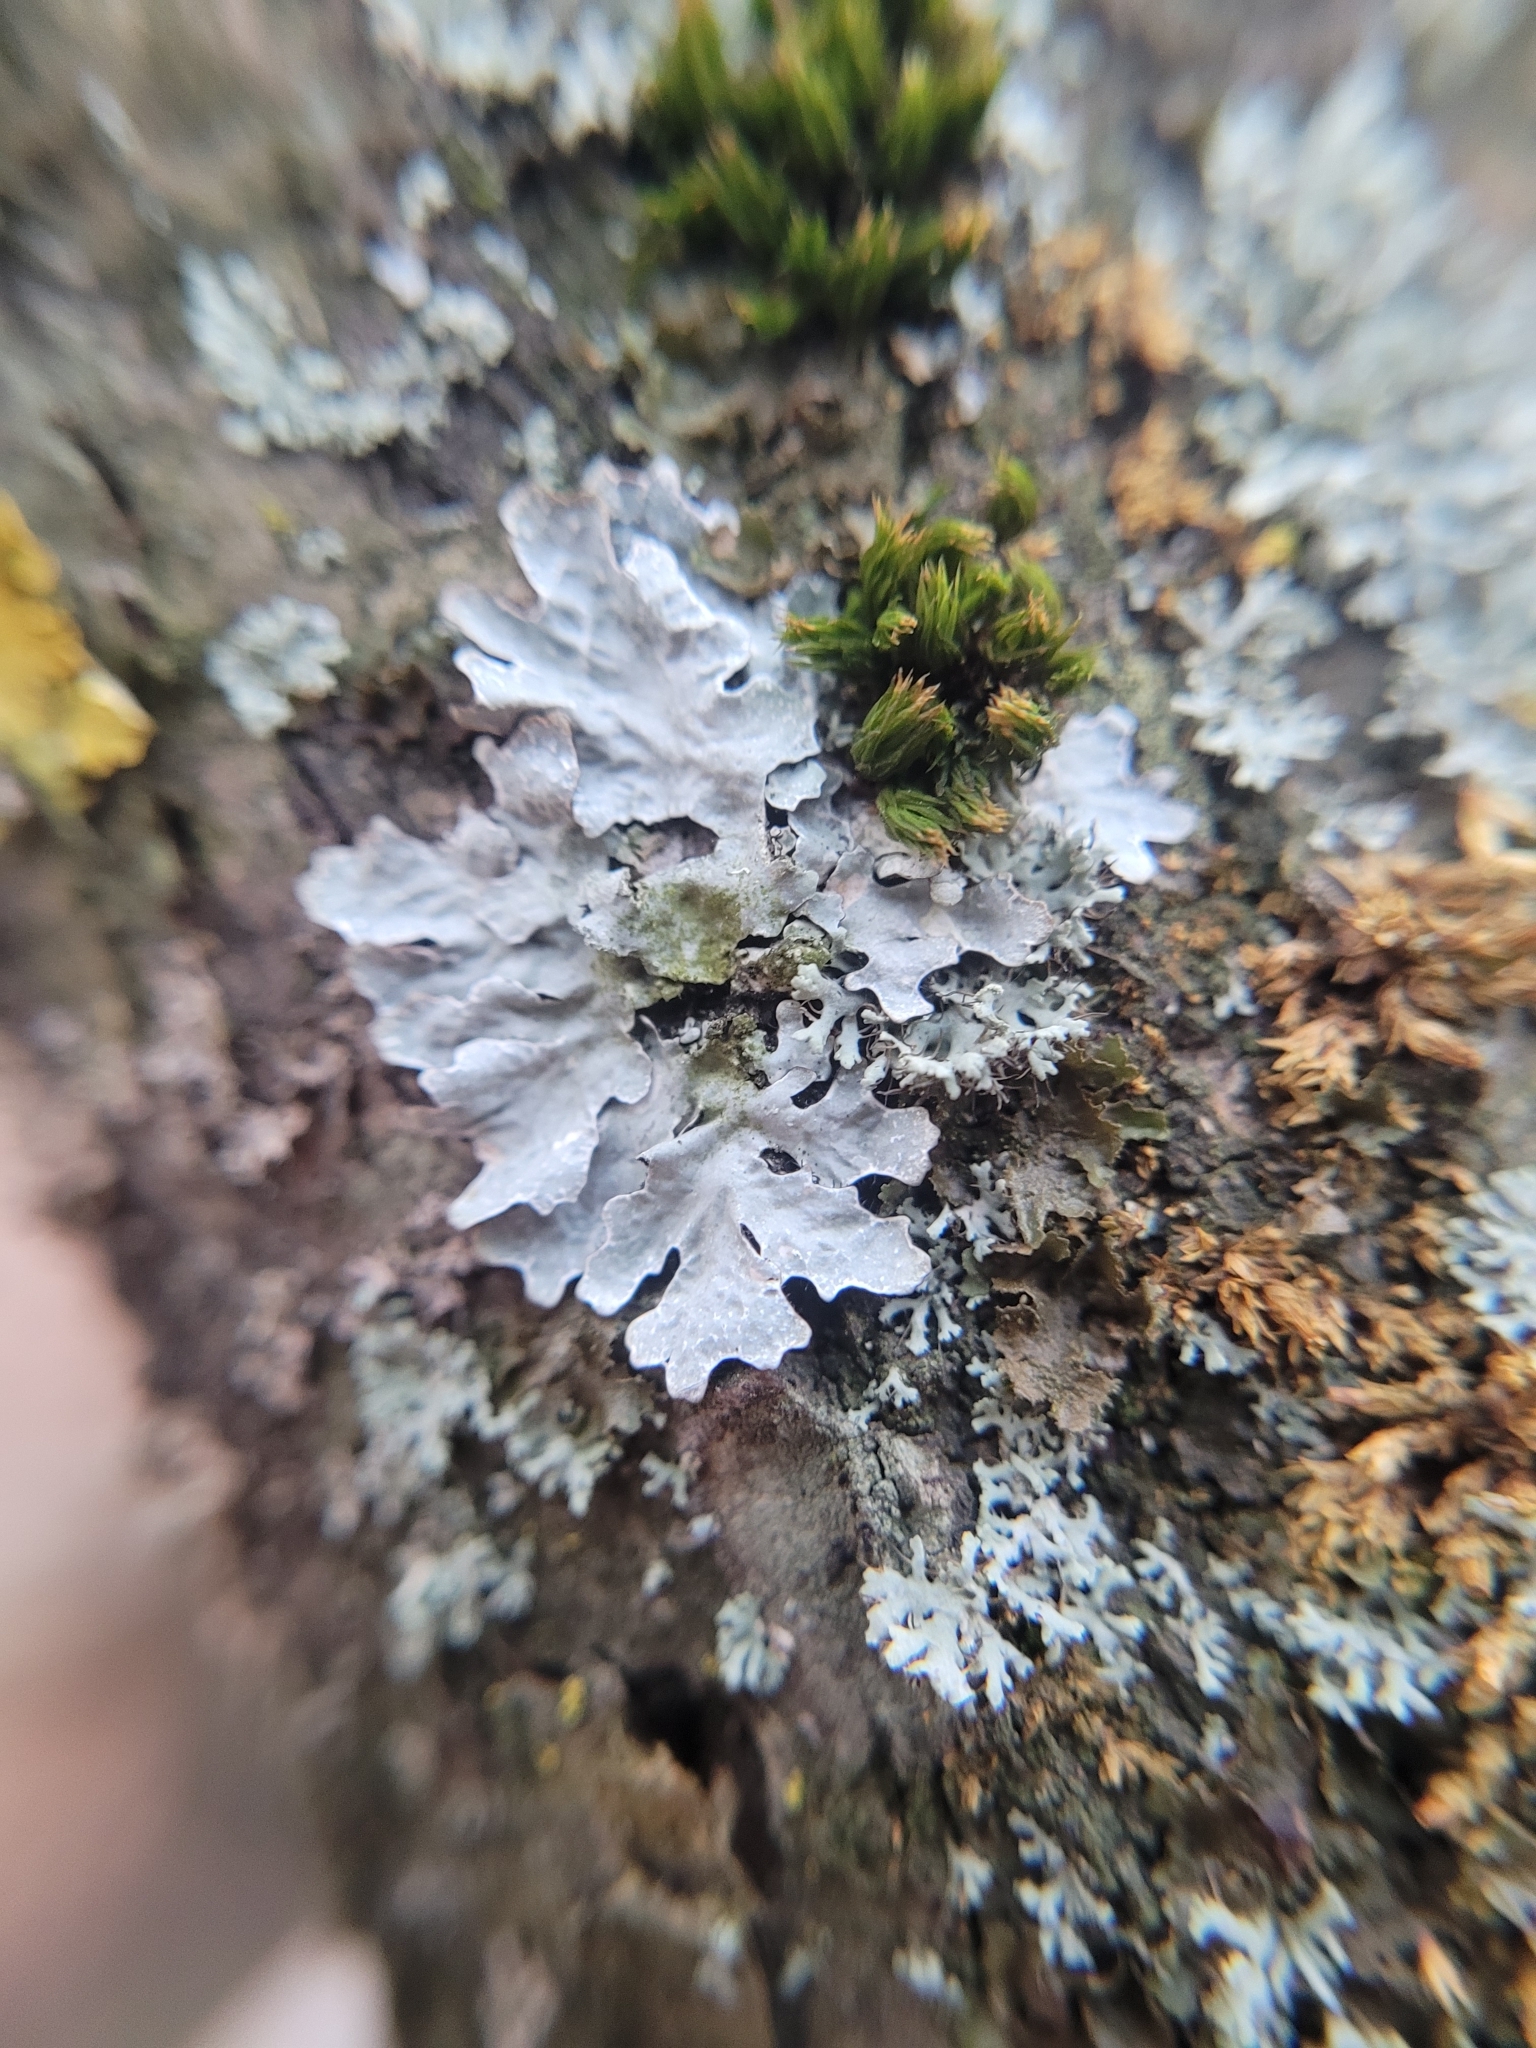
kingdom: Fungi
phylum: Ascomycota
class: Lecanoromycetes
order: Lecanorales
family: Parmeliaceae
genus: Parmelia
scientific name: Parmelia sulcata
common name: Netted shield lichen
